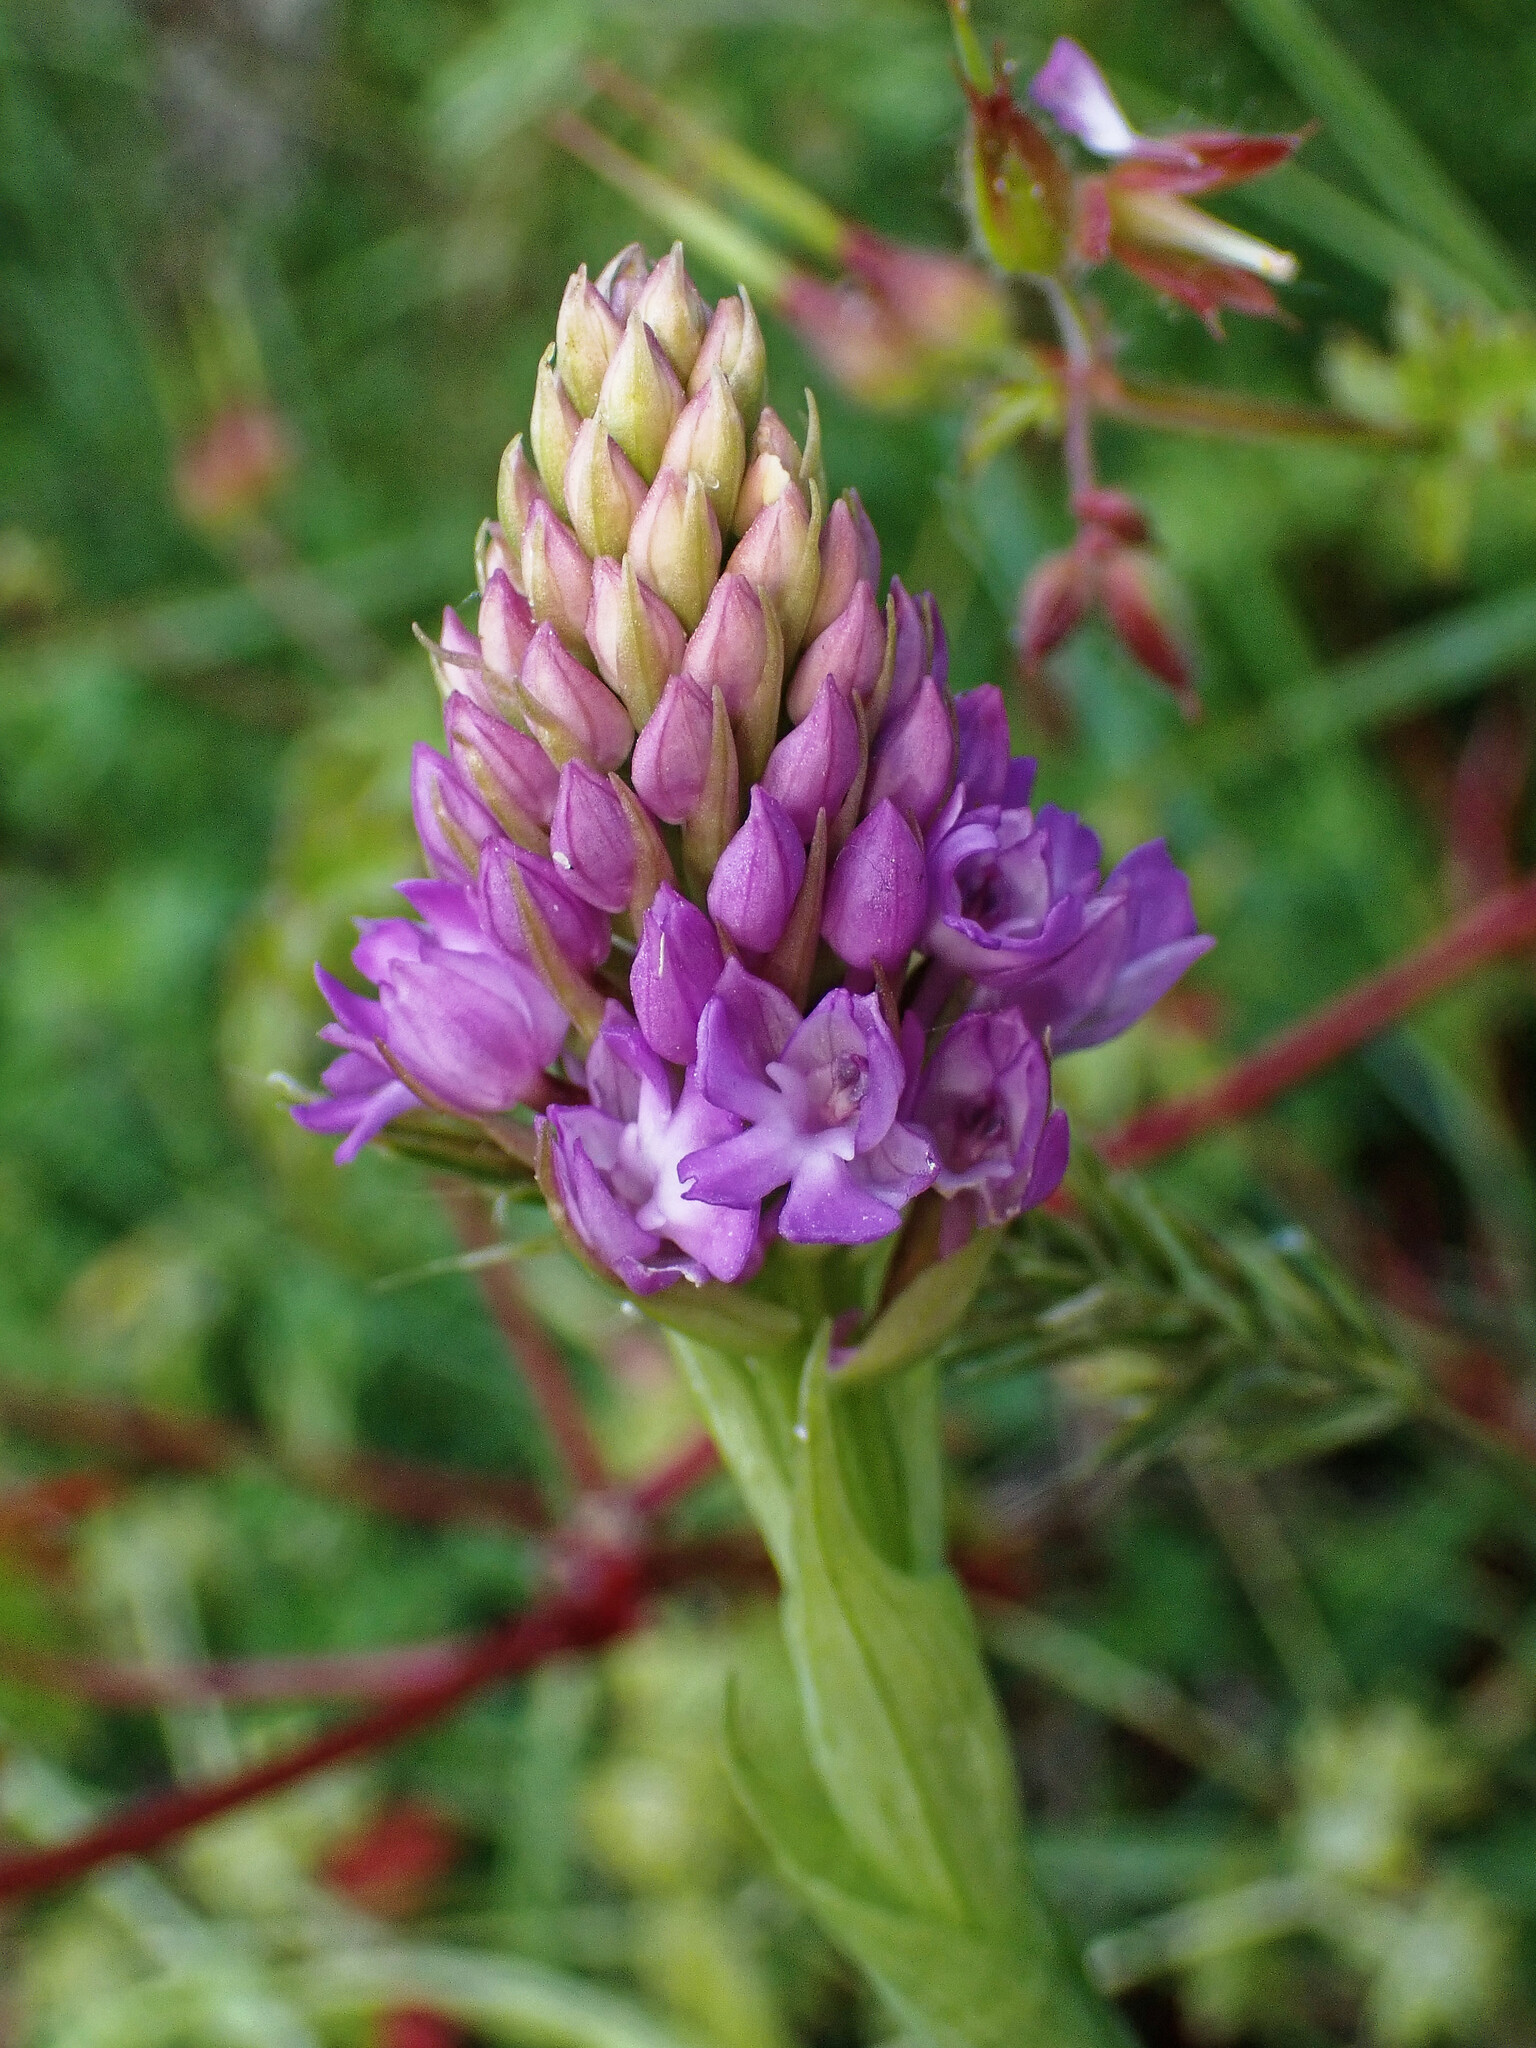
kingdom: Plantae
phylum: Tracheophyta
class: Liliopsida
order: Asparagales
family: Orchidaceae
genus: Anacamptis
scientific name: Anacamptis pyramidalis
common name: Pyramidal orchid
